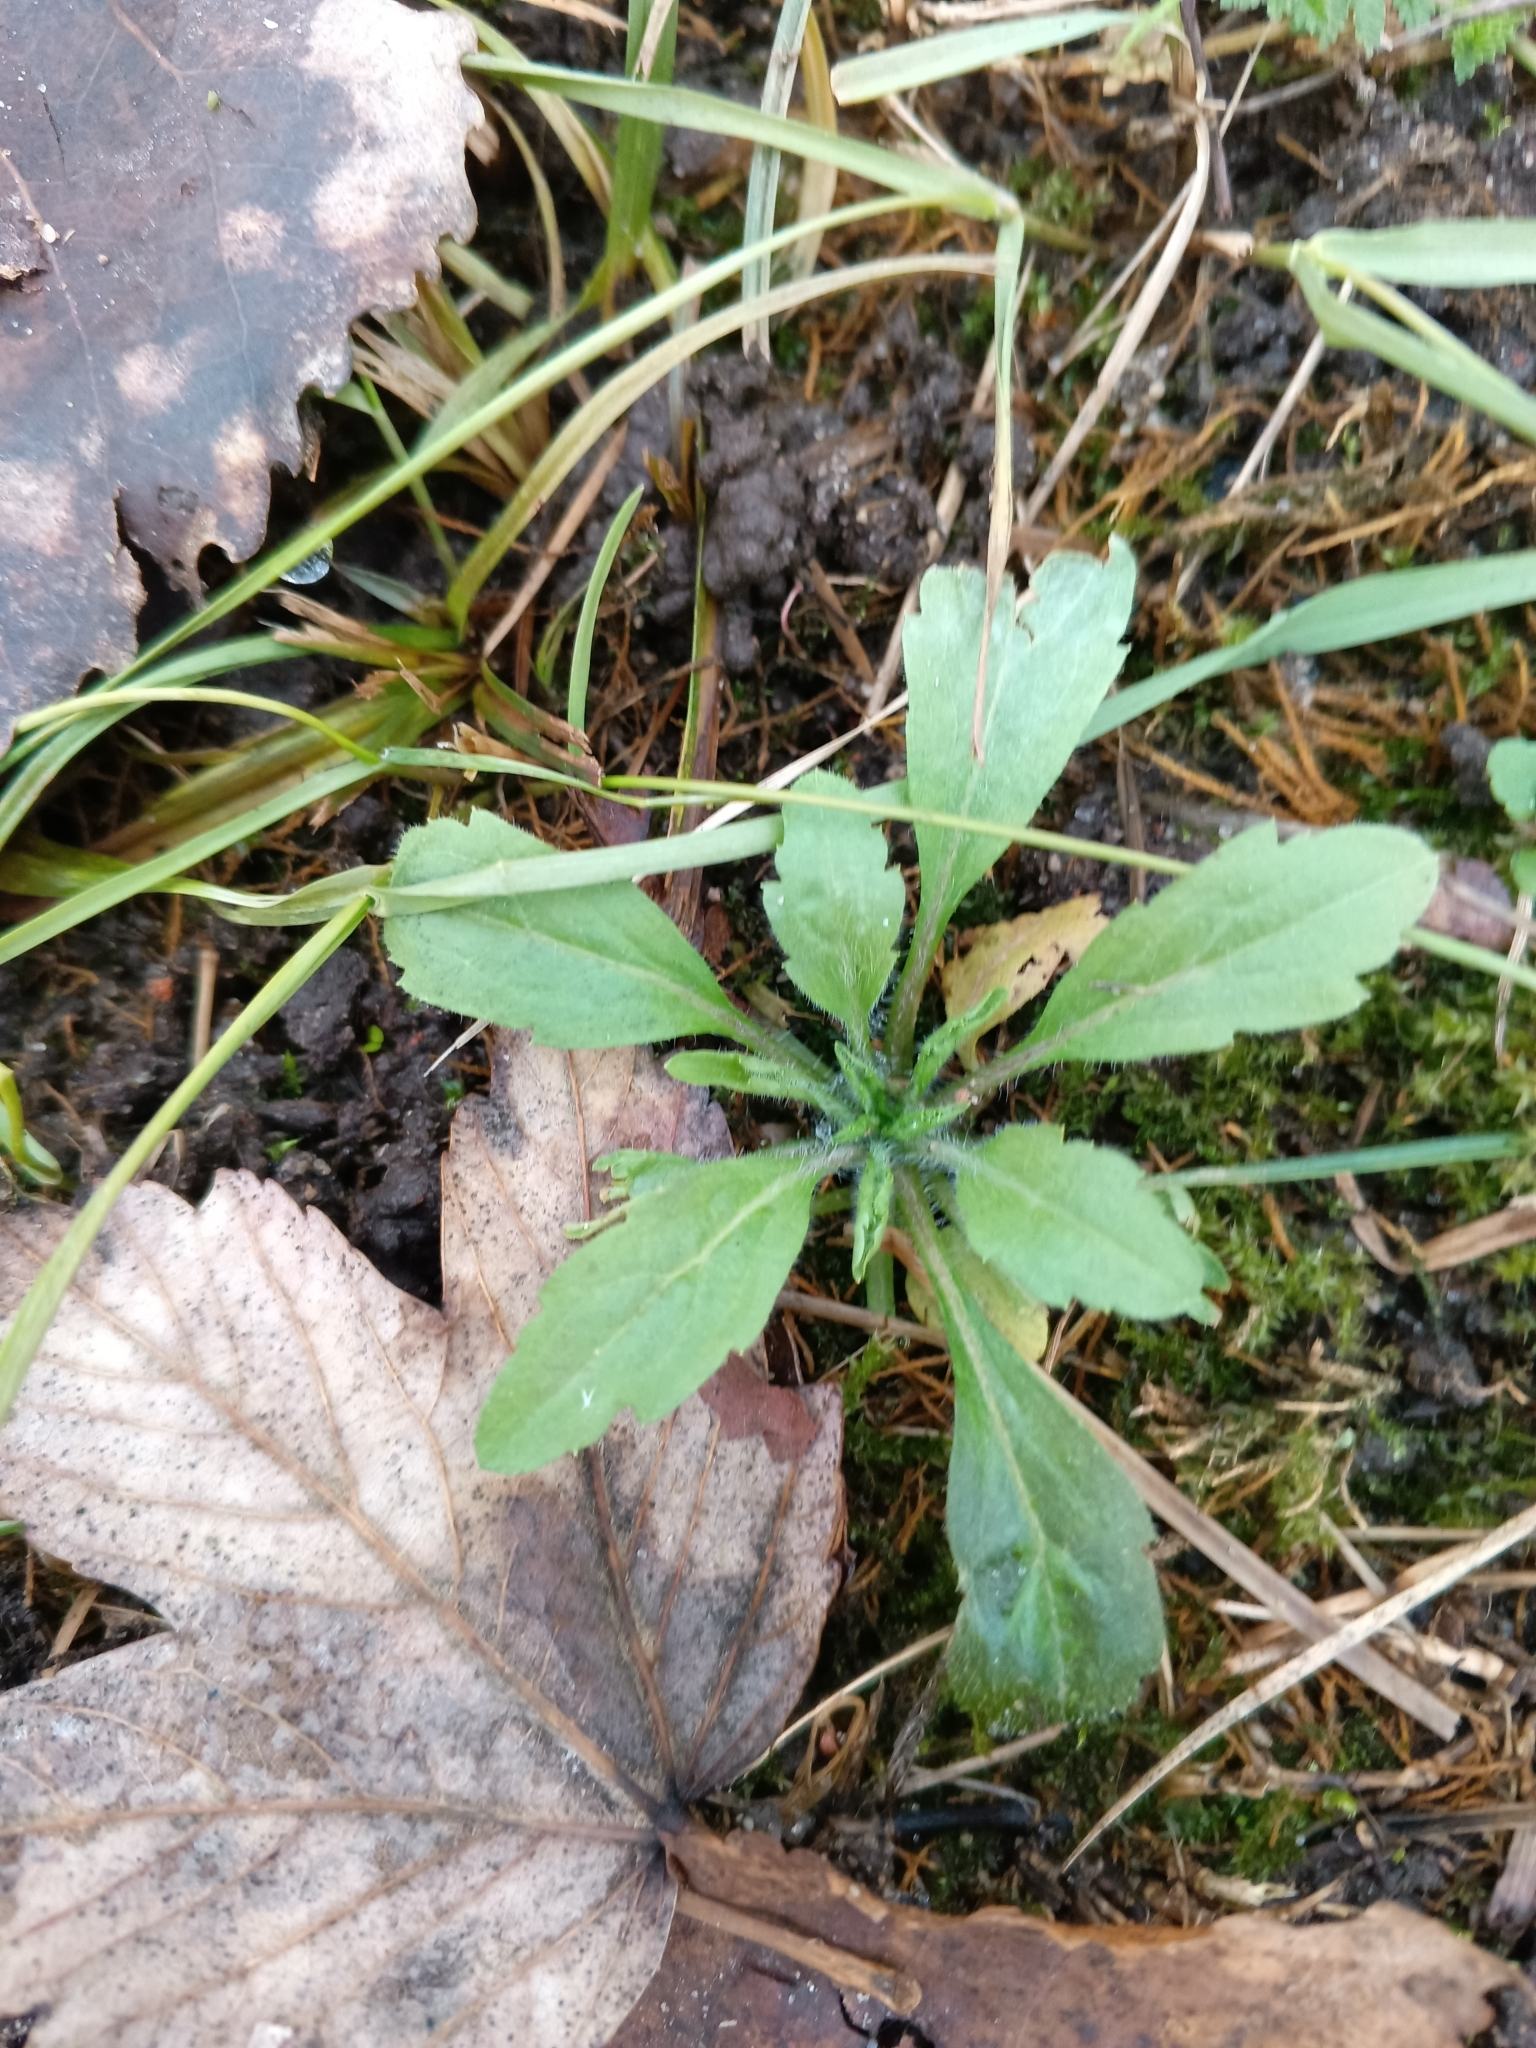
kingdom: Plantae
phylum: Tracheophyta
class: Magnoliopsida
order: Asterales
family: Asteraceae
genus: Erigeron
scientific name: Erigeron canadensis
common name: Canadian fleabane
